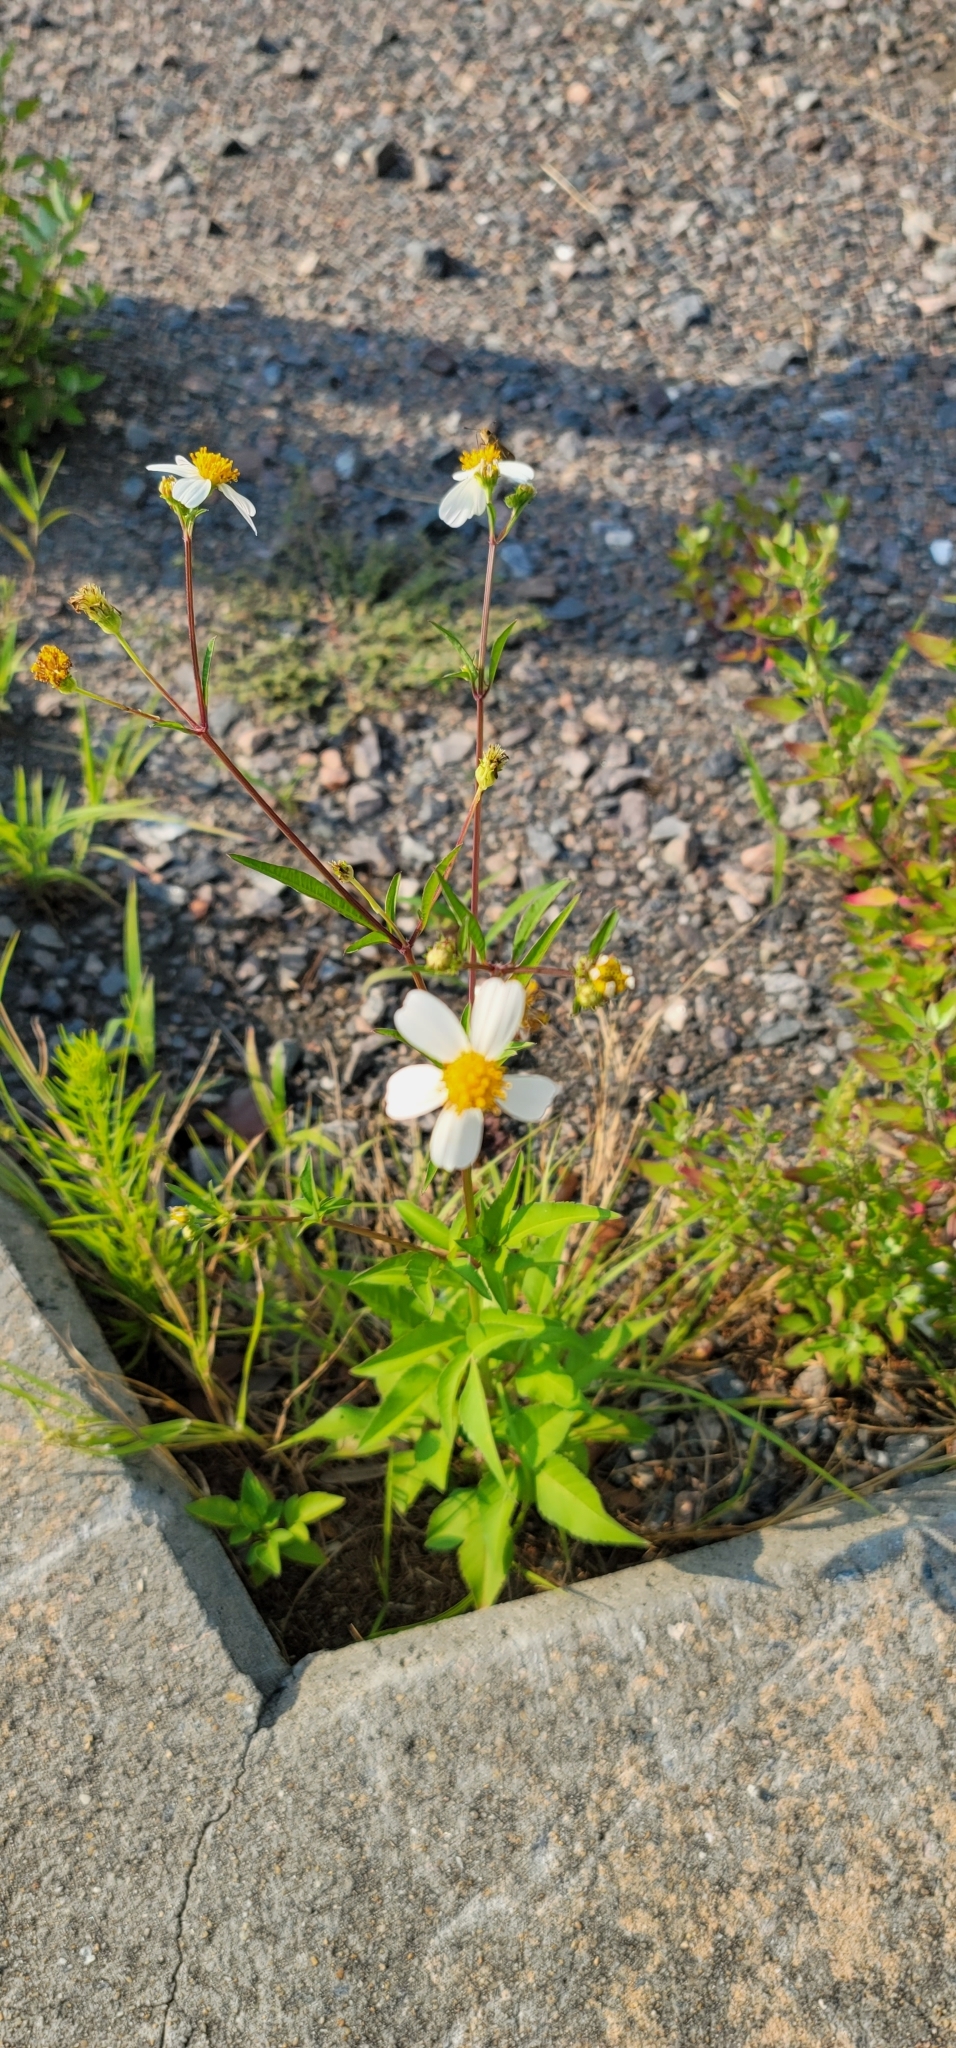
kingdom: Plantae
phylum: Tracheophyta
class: Magnoliopsida
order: Asterales
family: Asteraceae
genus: Bidens
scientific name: Bidens alba
